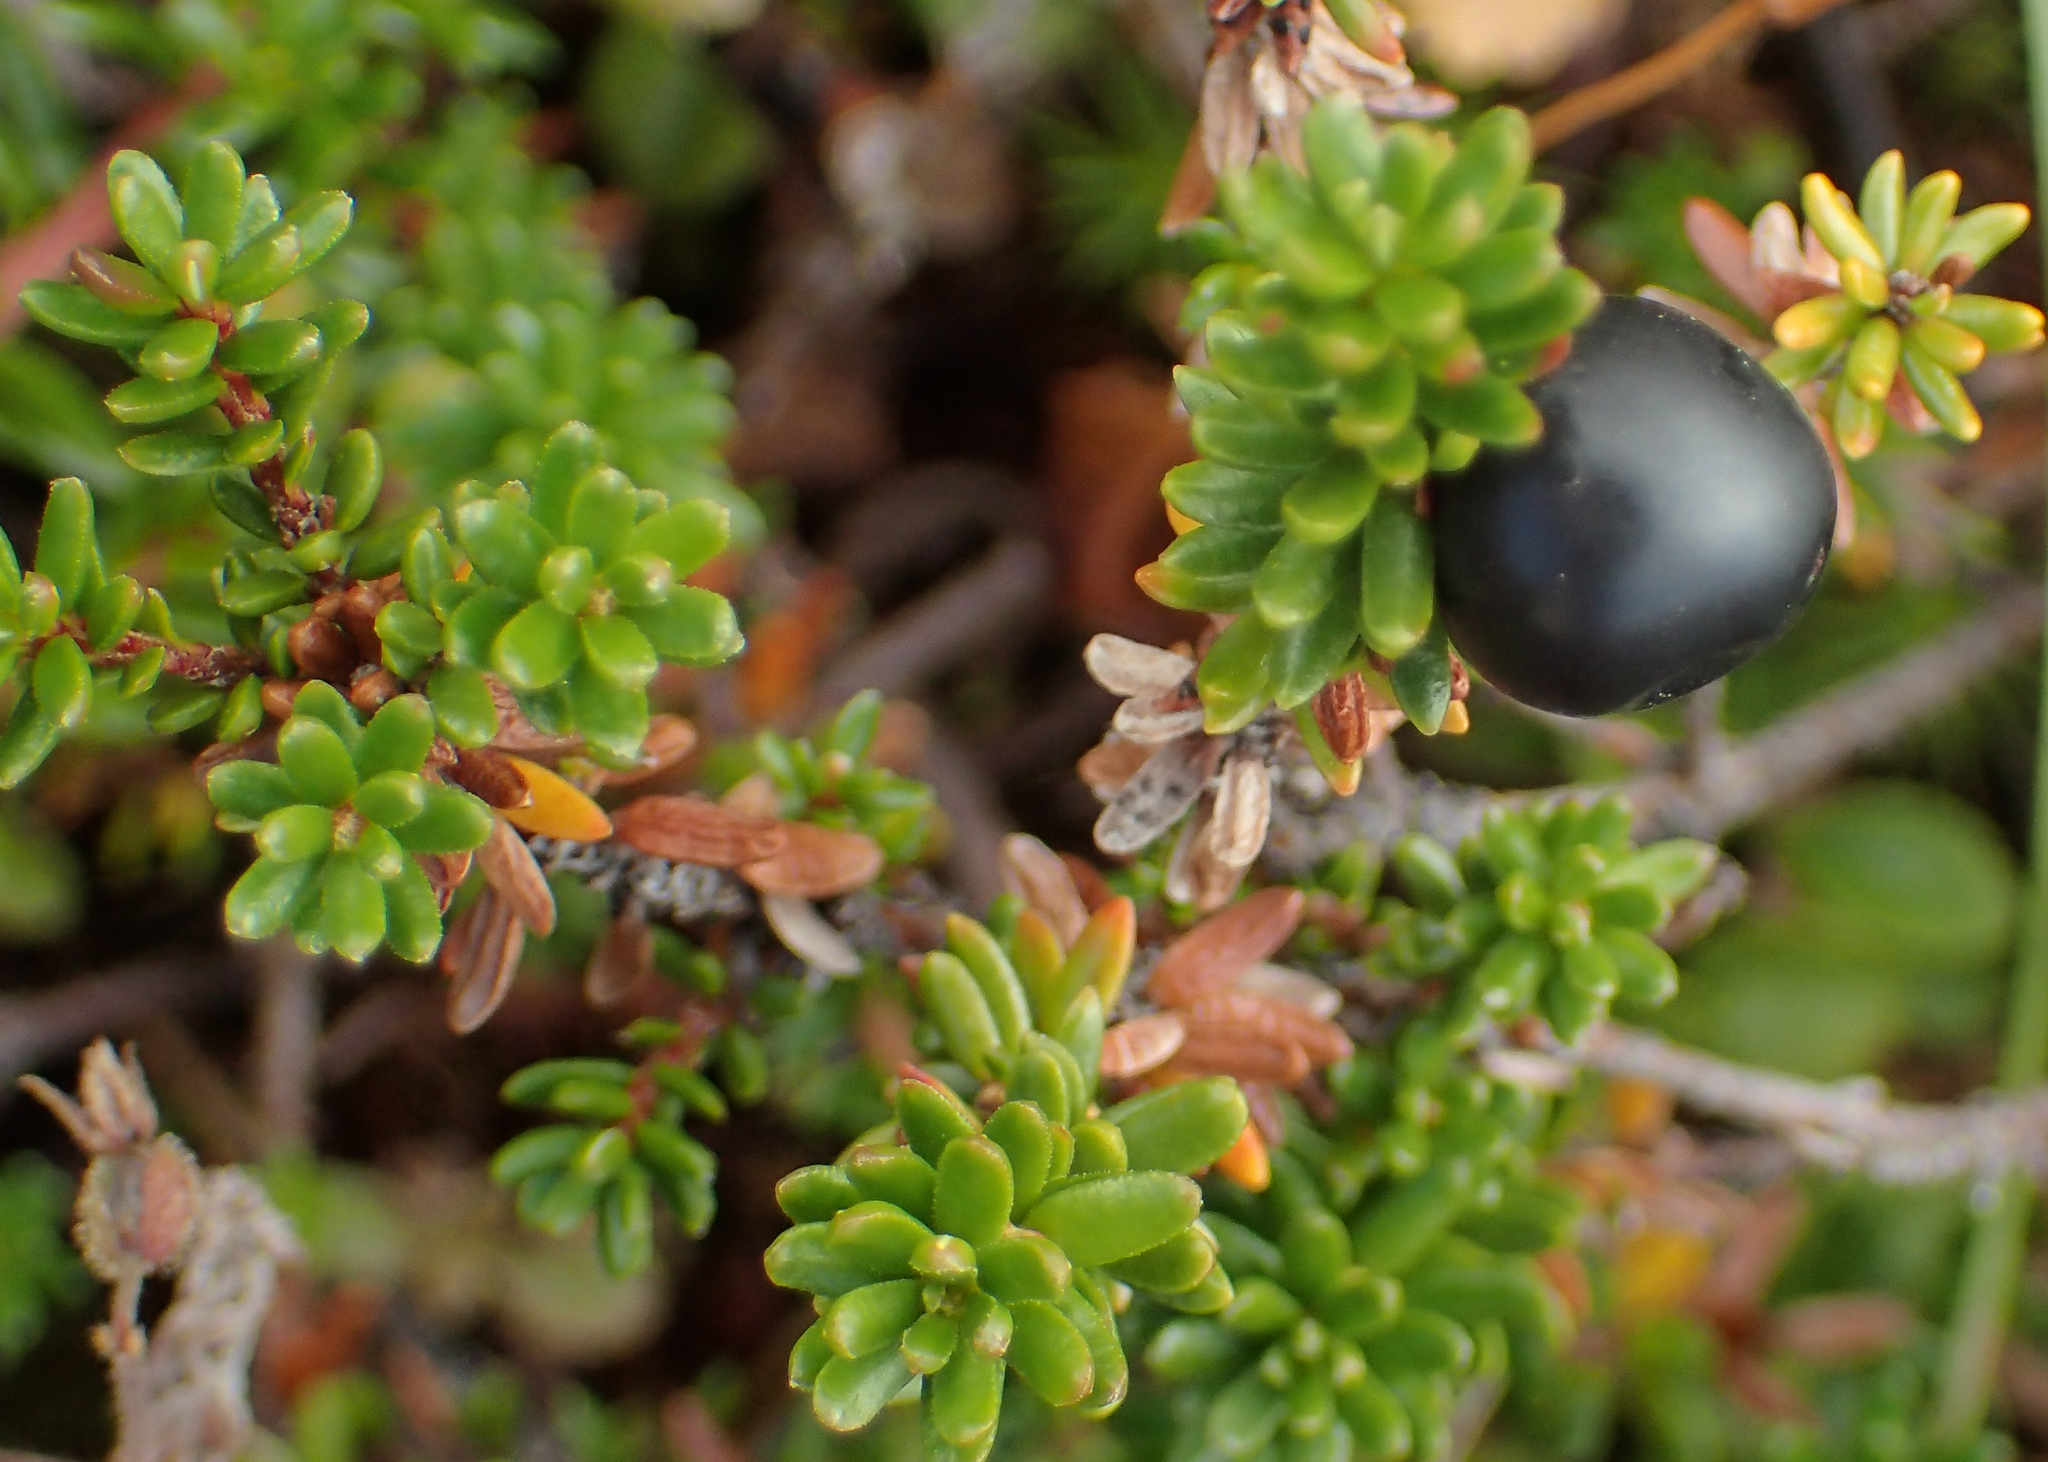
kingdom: Plantae
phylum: Tracheophyta
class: Magnoliopsida
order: Ericales
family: Ericaceae
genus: Empetrum
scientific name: Empetrum nigrum
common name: Black crowberry
